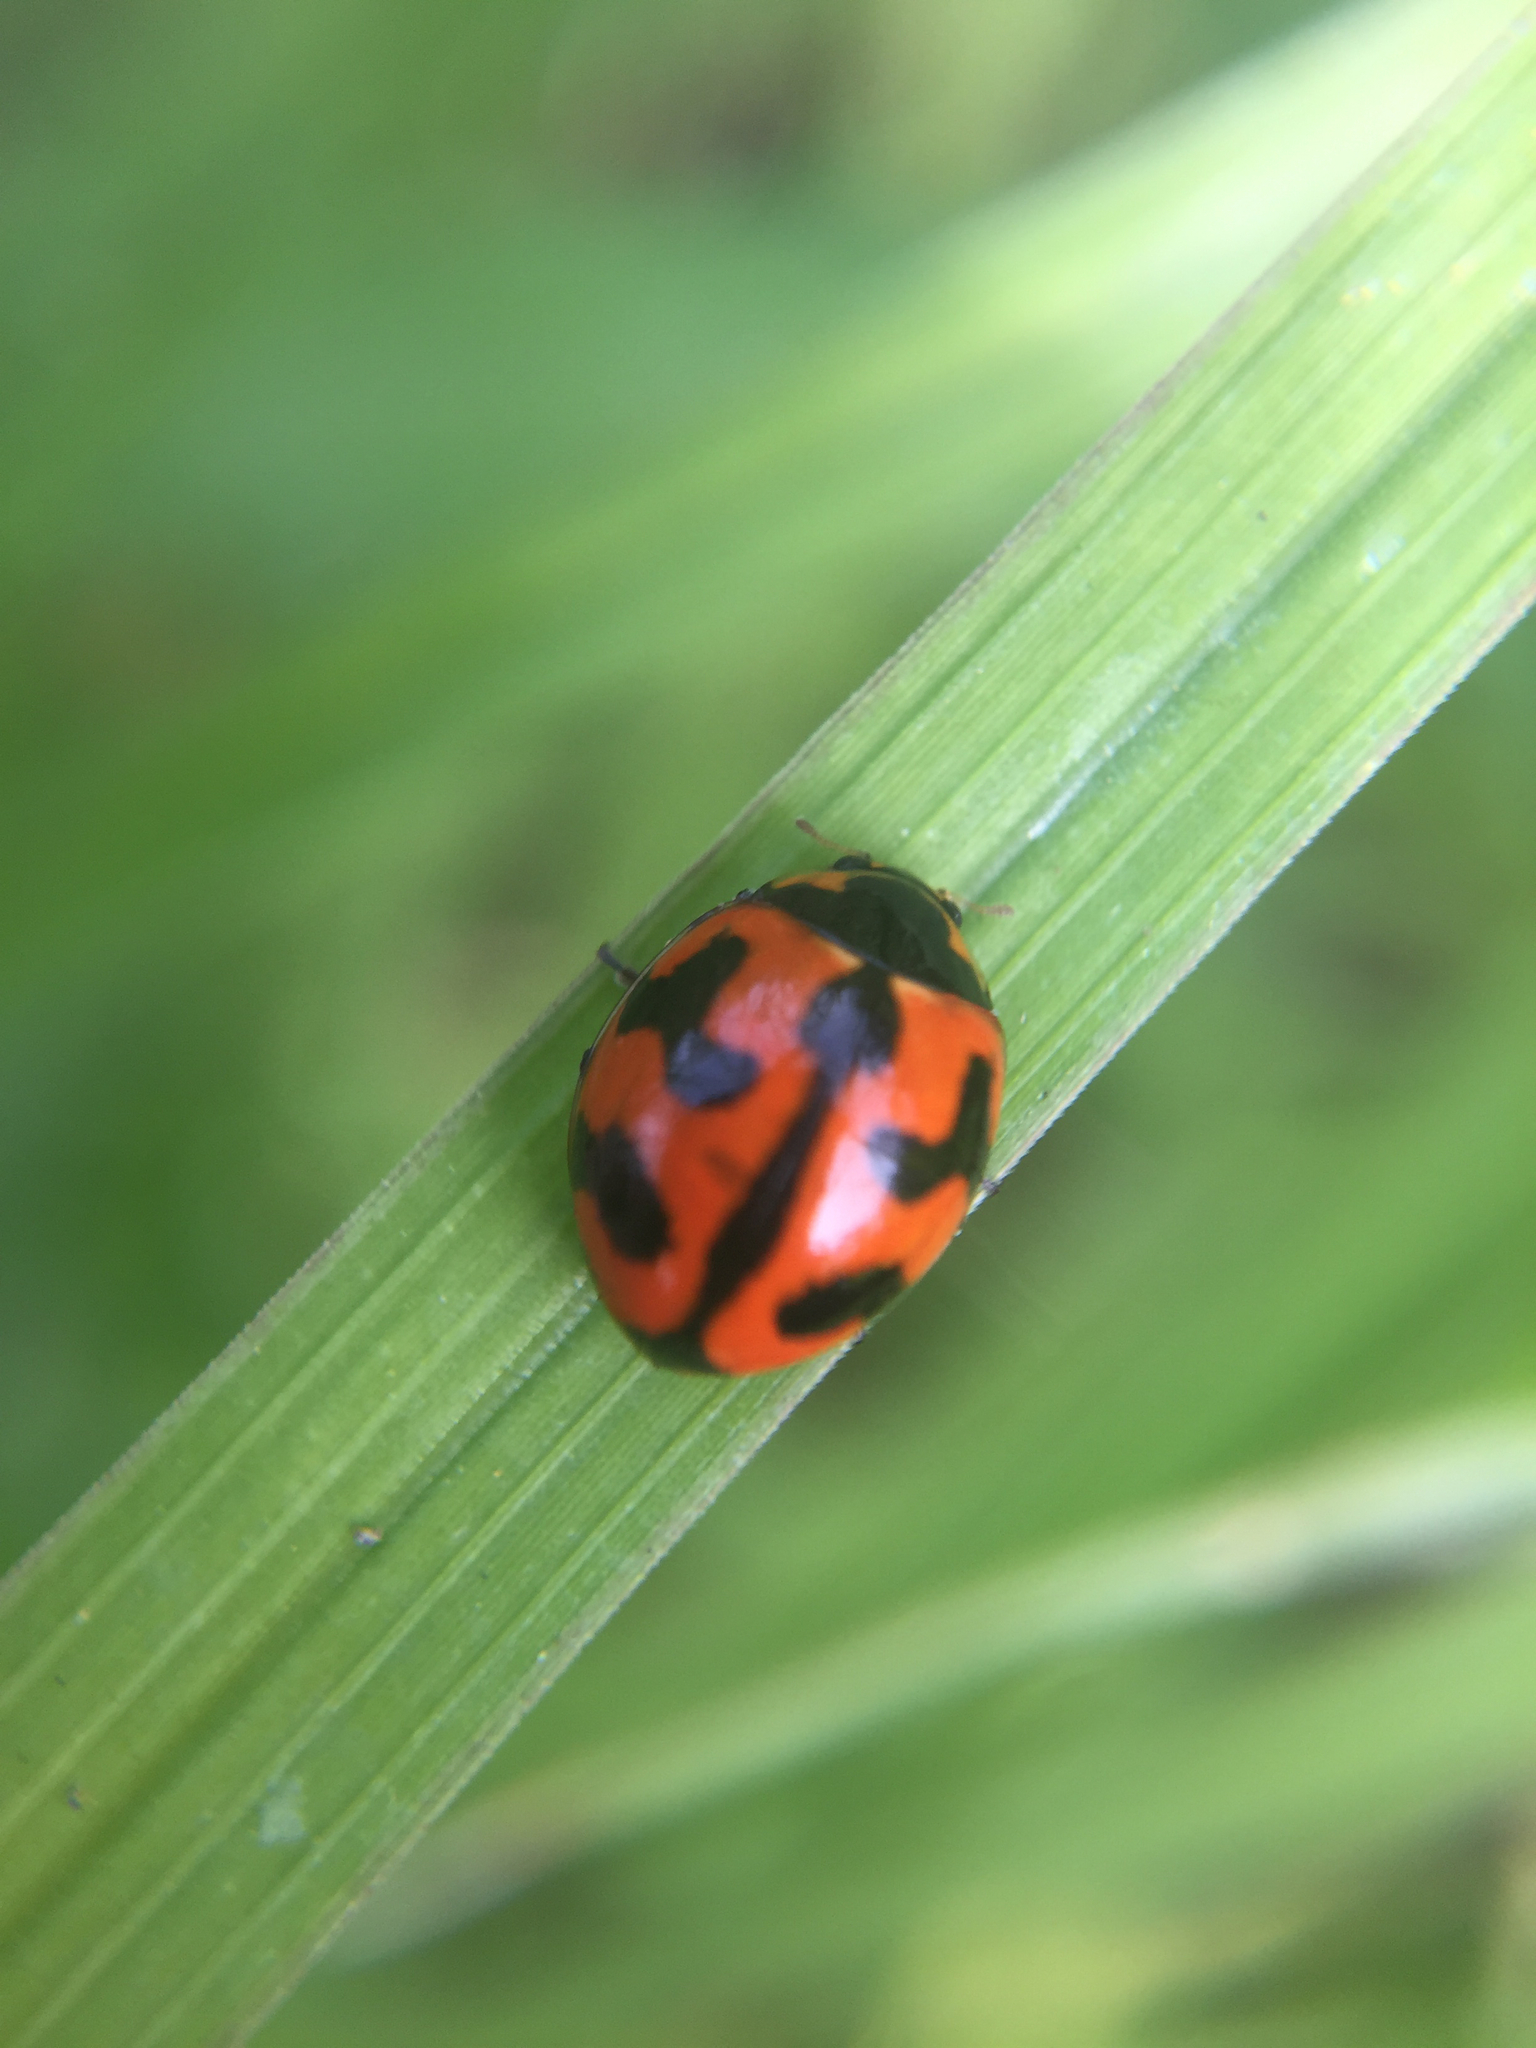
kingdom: Animalia
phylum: Arthropoda
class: Insecta
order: Coleoptera
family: Coccinellidae
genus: Coccinella
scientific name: Coccinella transversalis
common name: Transverse lady beetle
